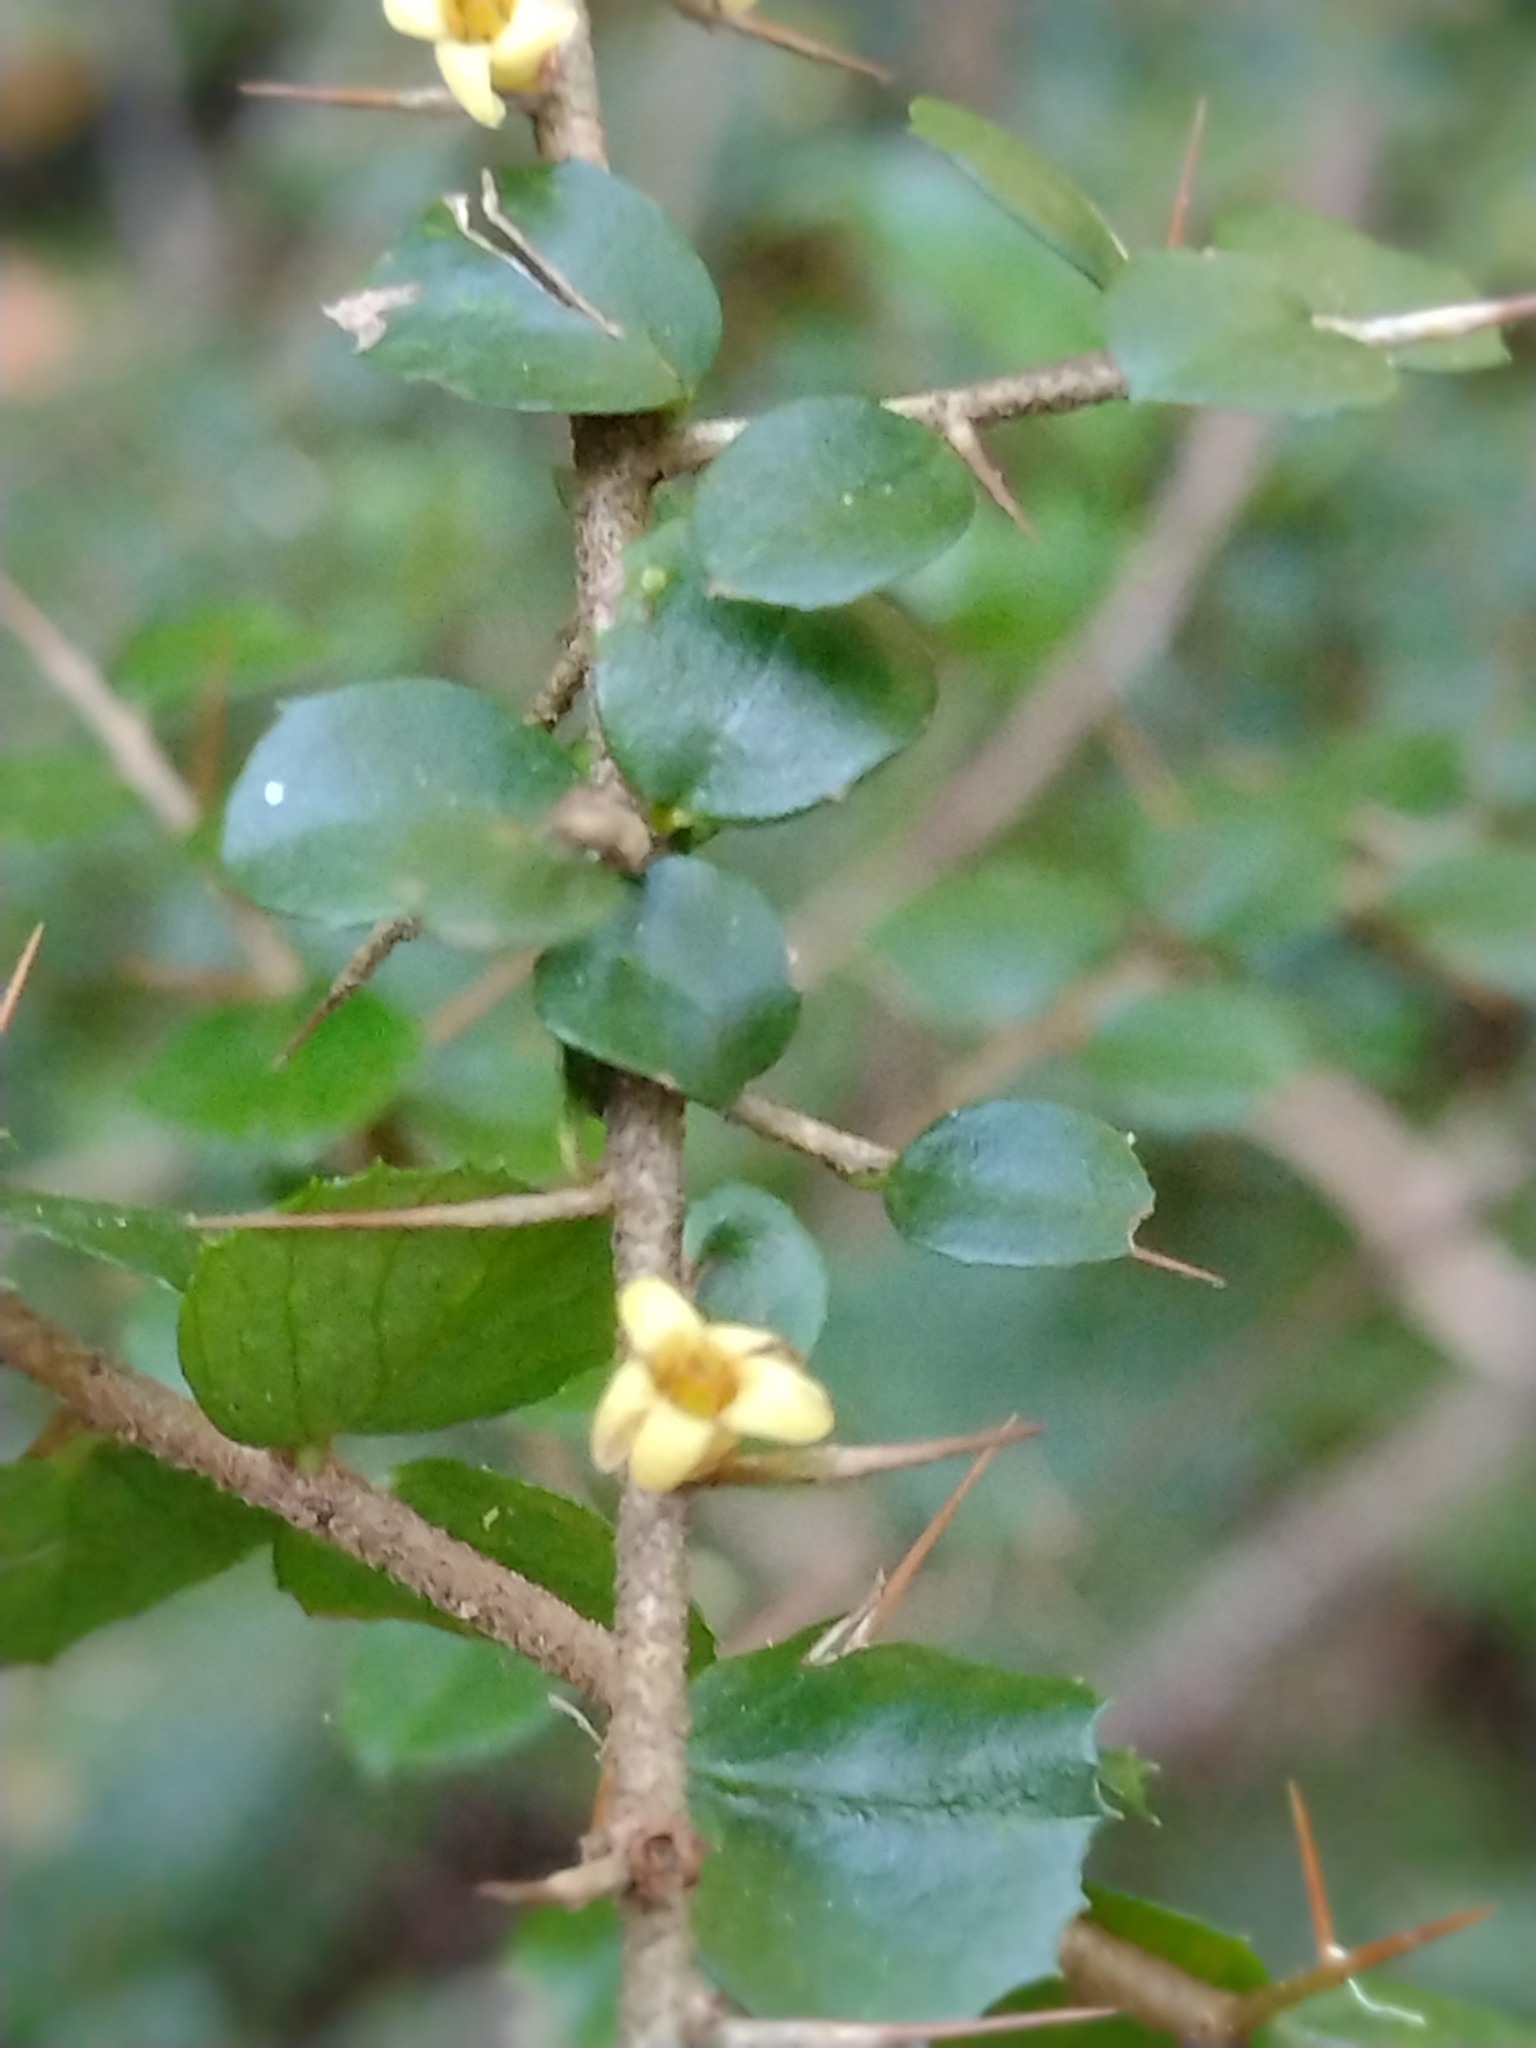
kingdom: Plantae
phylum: Tracheophyta
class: Magnoliopsida
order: Apiales
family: Pittosporaceae
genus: Pittosporum
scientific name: Pittosporum multiflorum
